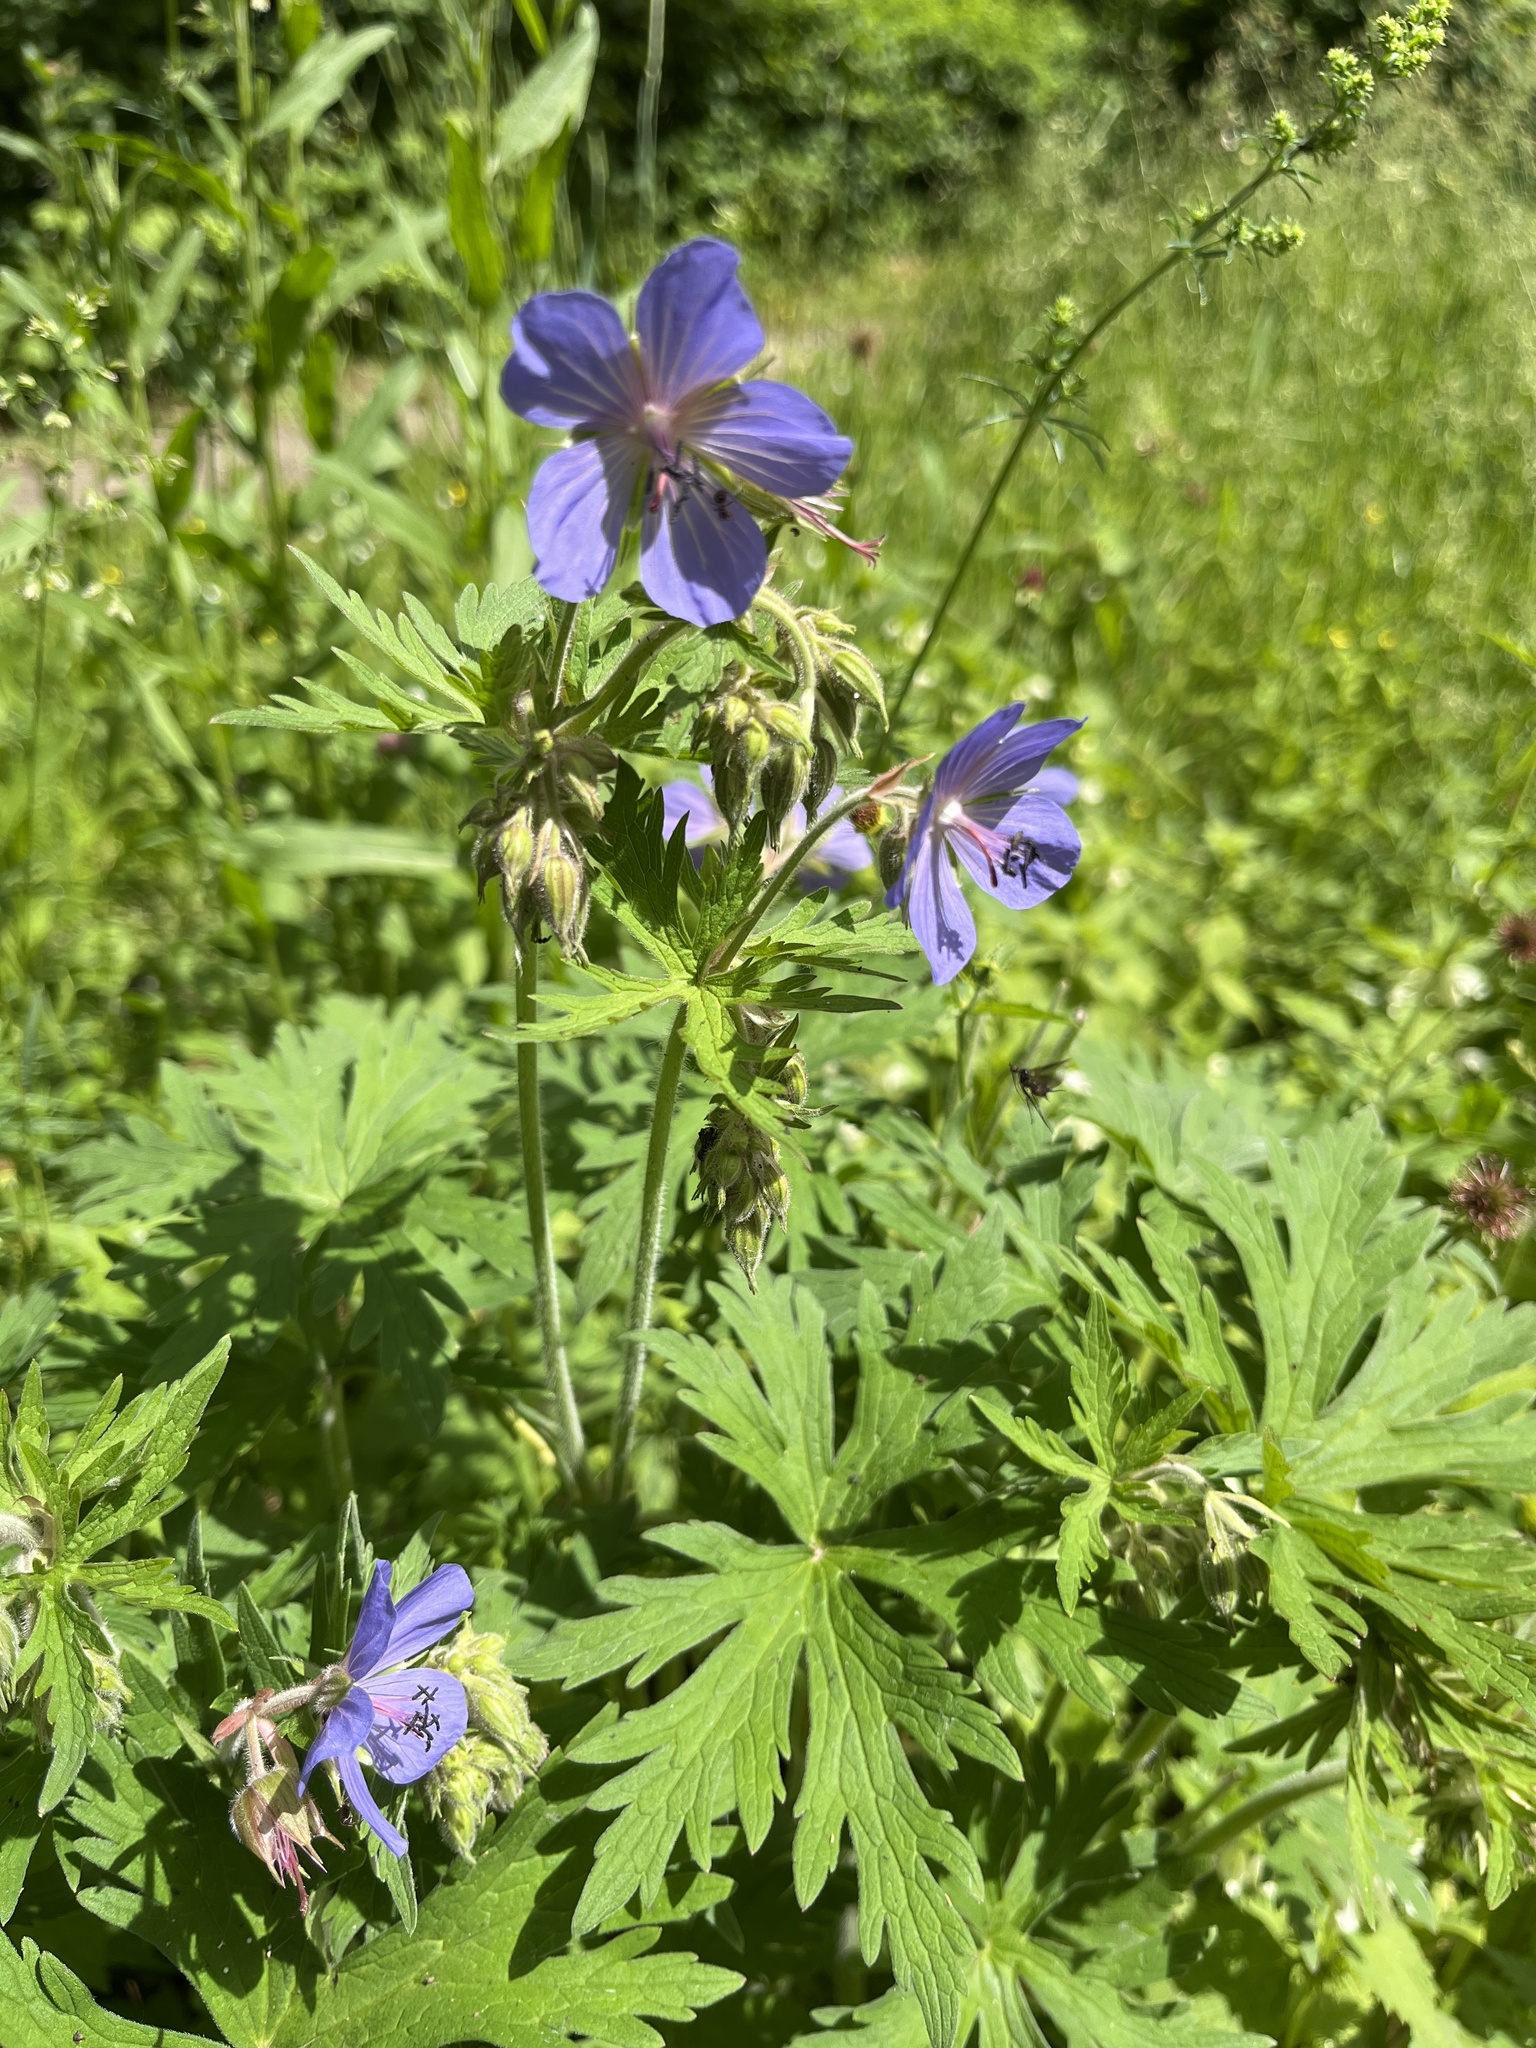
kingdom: Plantae
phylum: Tracheophyta
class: Magnoliopsida
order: Geraniales
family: Geraniaceae
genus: Geranium
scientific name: Geranium pratense
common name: Meadow crane's-bill
